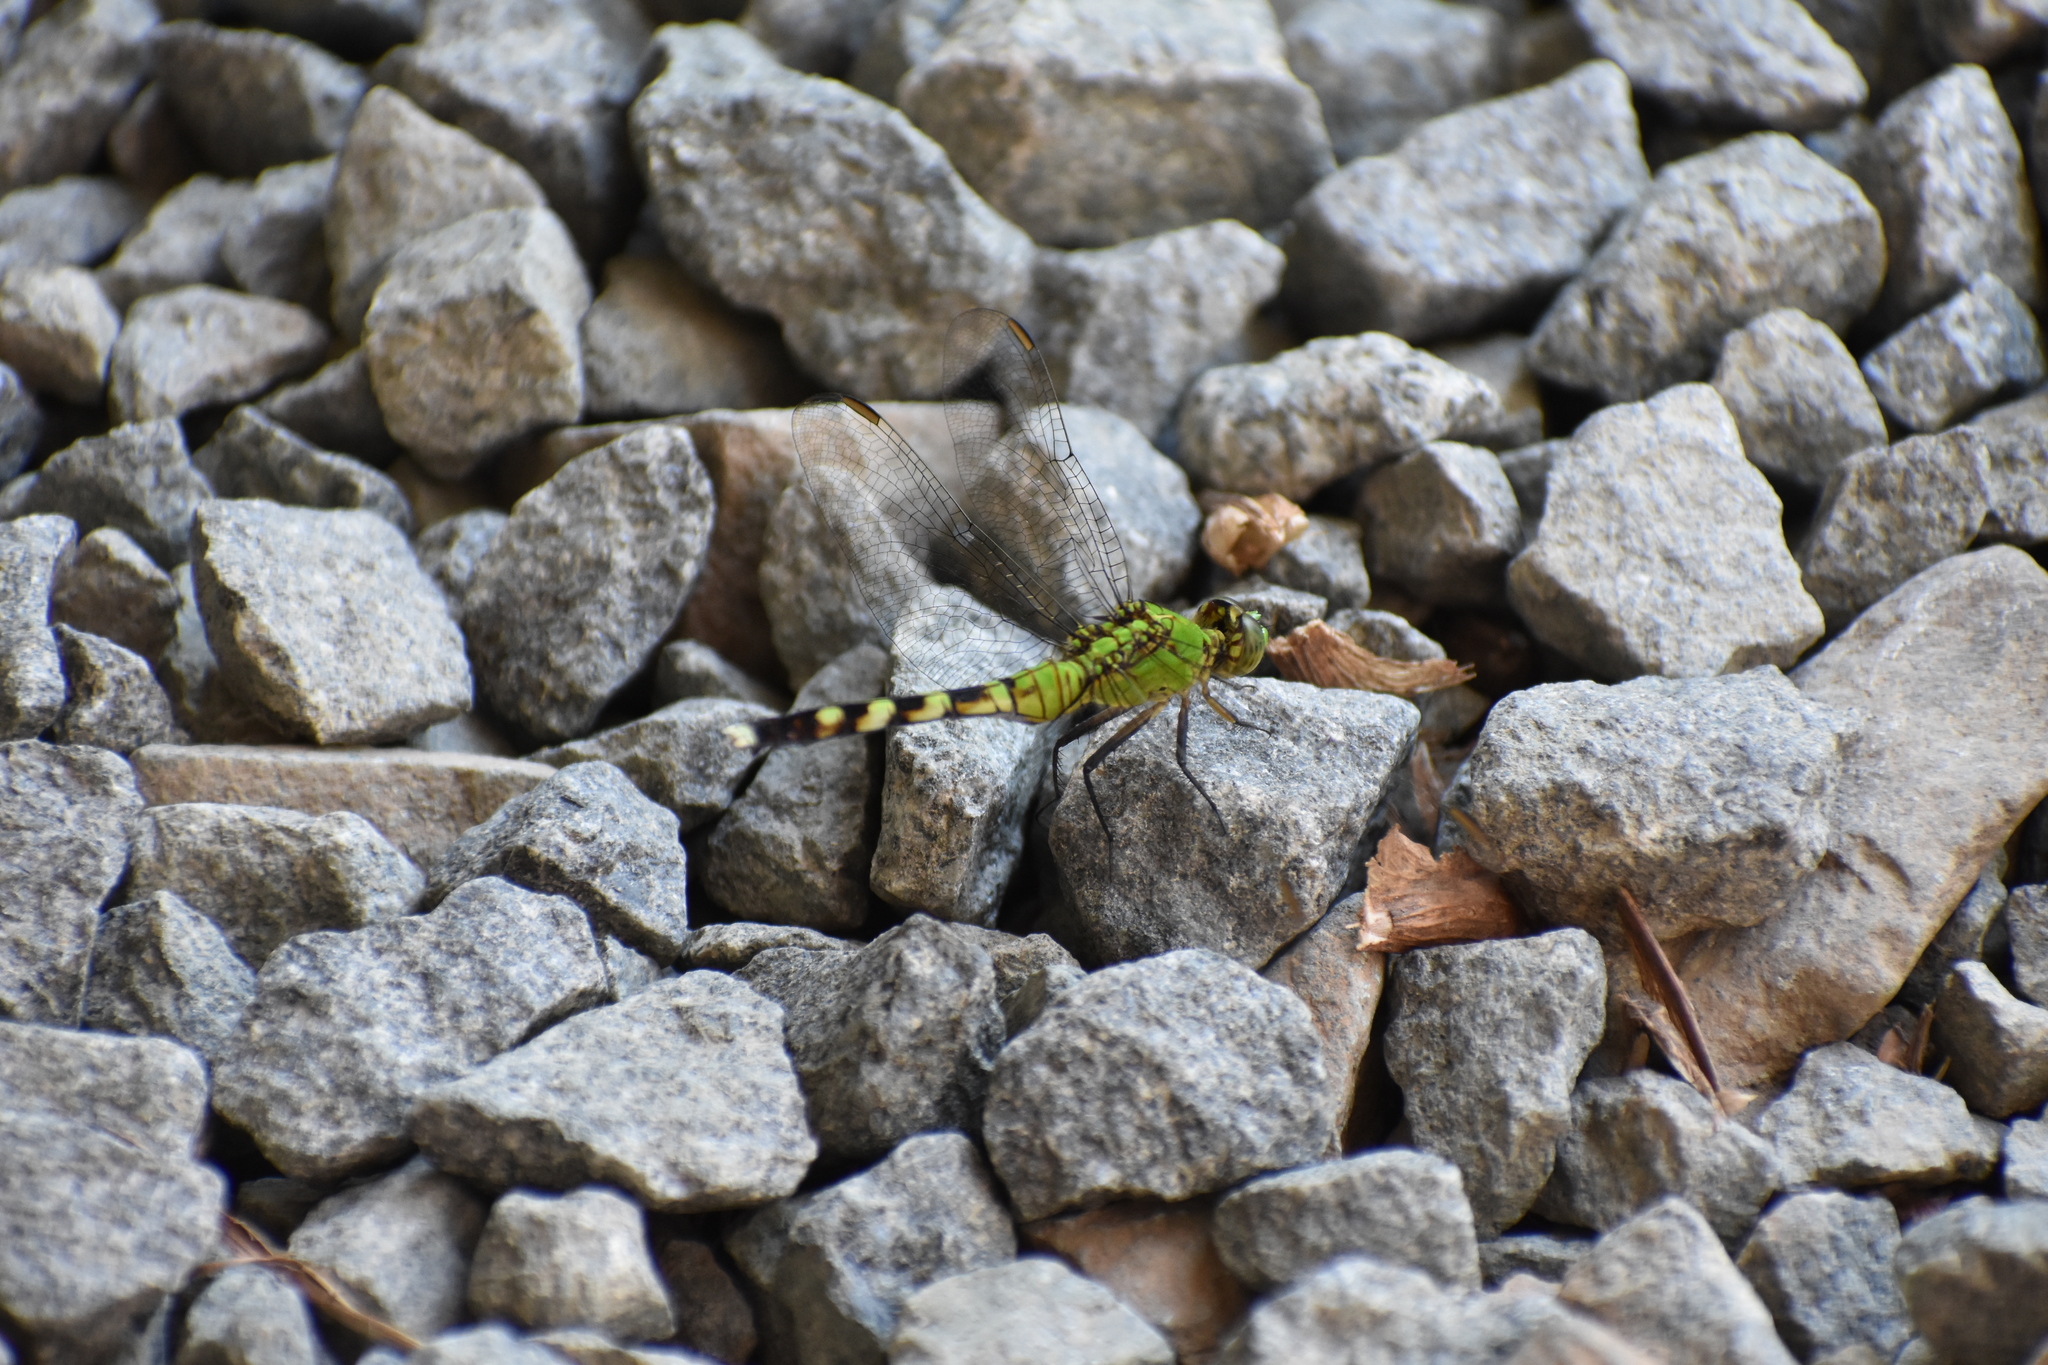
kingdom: Animalia
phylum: Arthropoda
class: Insecta
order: Odonata
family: Libellulidae
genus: Erythemis
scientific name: Erythemis simplicicollis
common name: Eastern pondhawk
